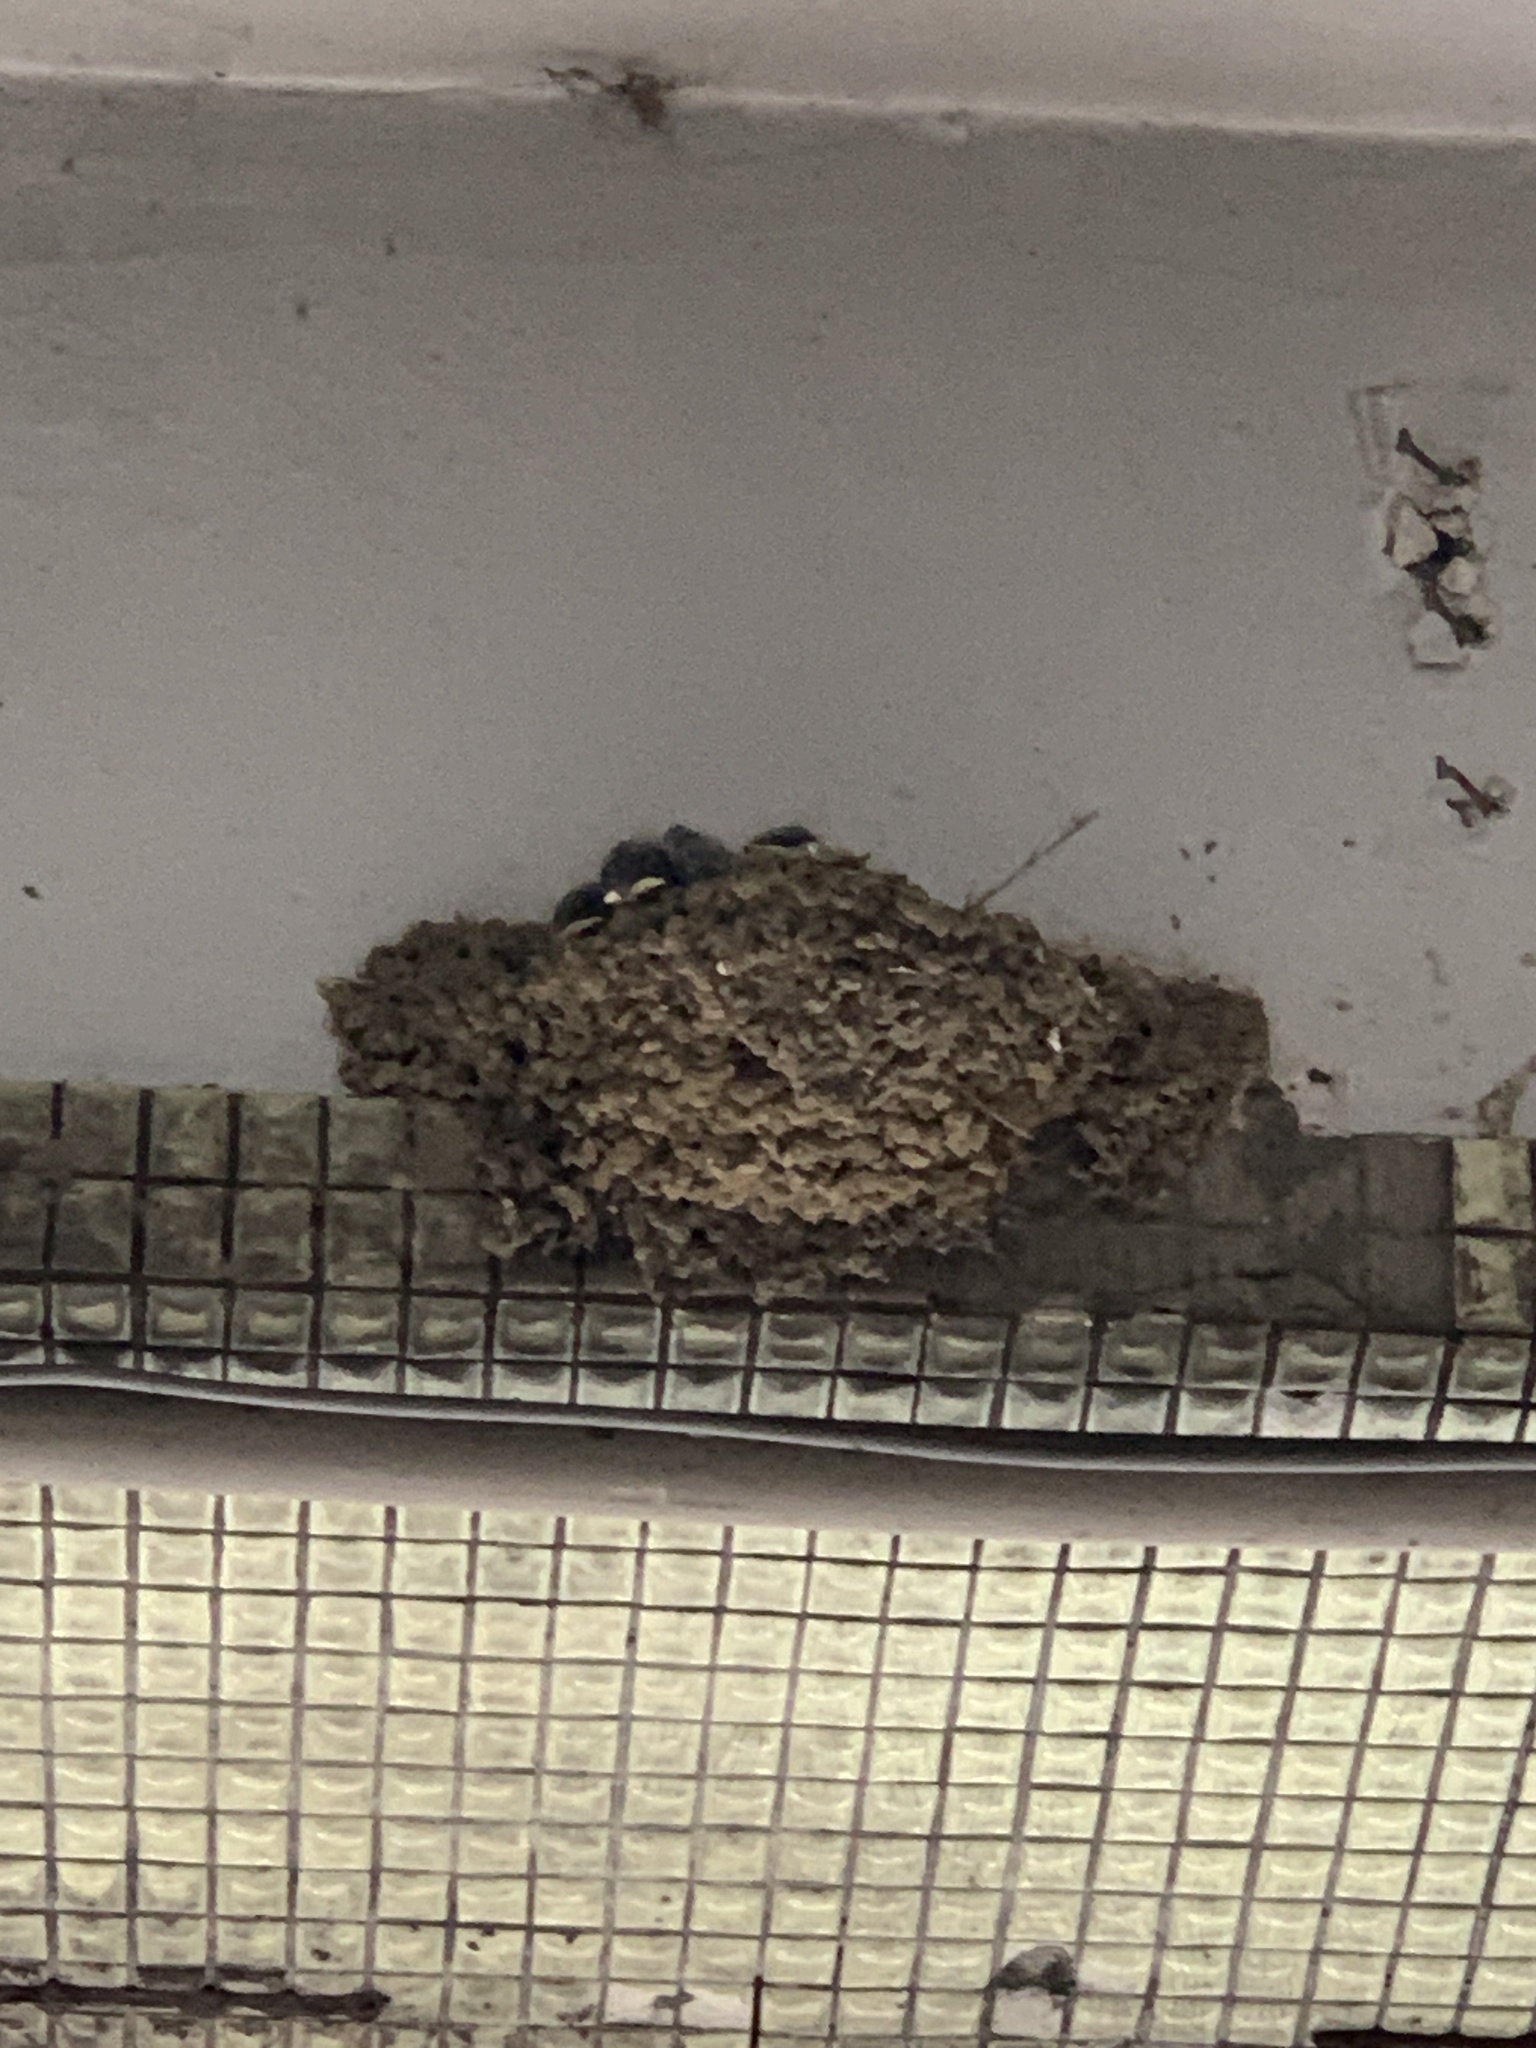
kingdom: Animalia
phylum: Chordata
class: Aves
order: Passeriformes
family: Hirundinidae
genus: Hirundo
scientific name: Hirundo rustica
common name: Barn swallow
